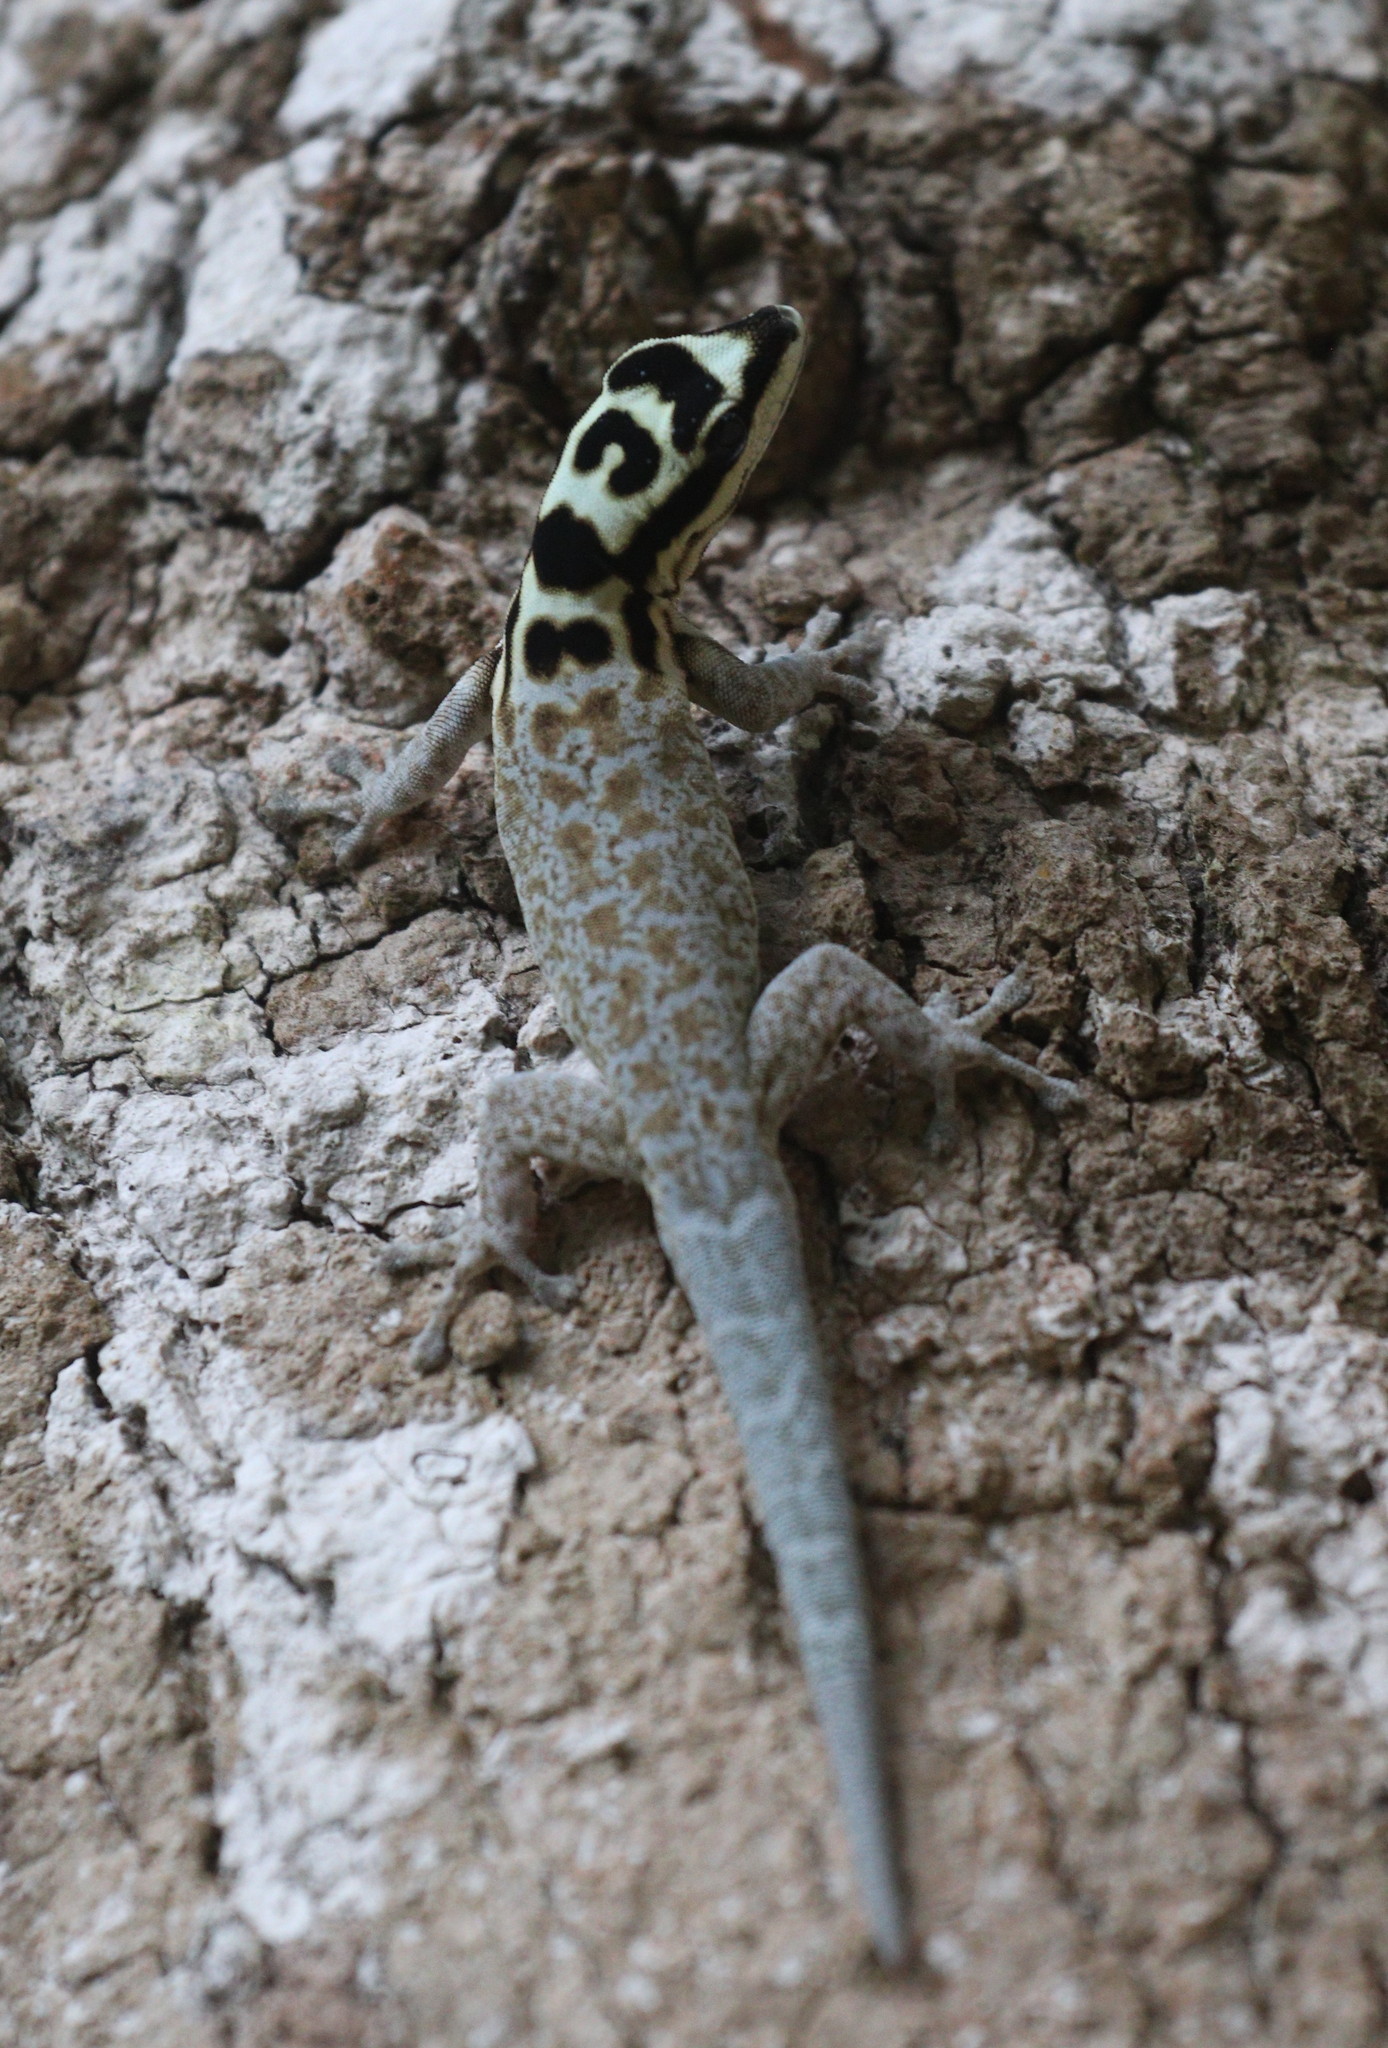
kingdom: Animalia
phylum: Chordata
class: Squamata
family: Gekkonidae
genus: Lygodactylus
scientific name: Lygodactylus mombasicus
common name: White-headed dwarf gecko
